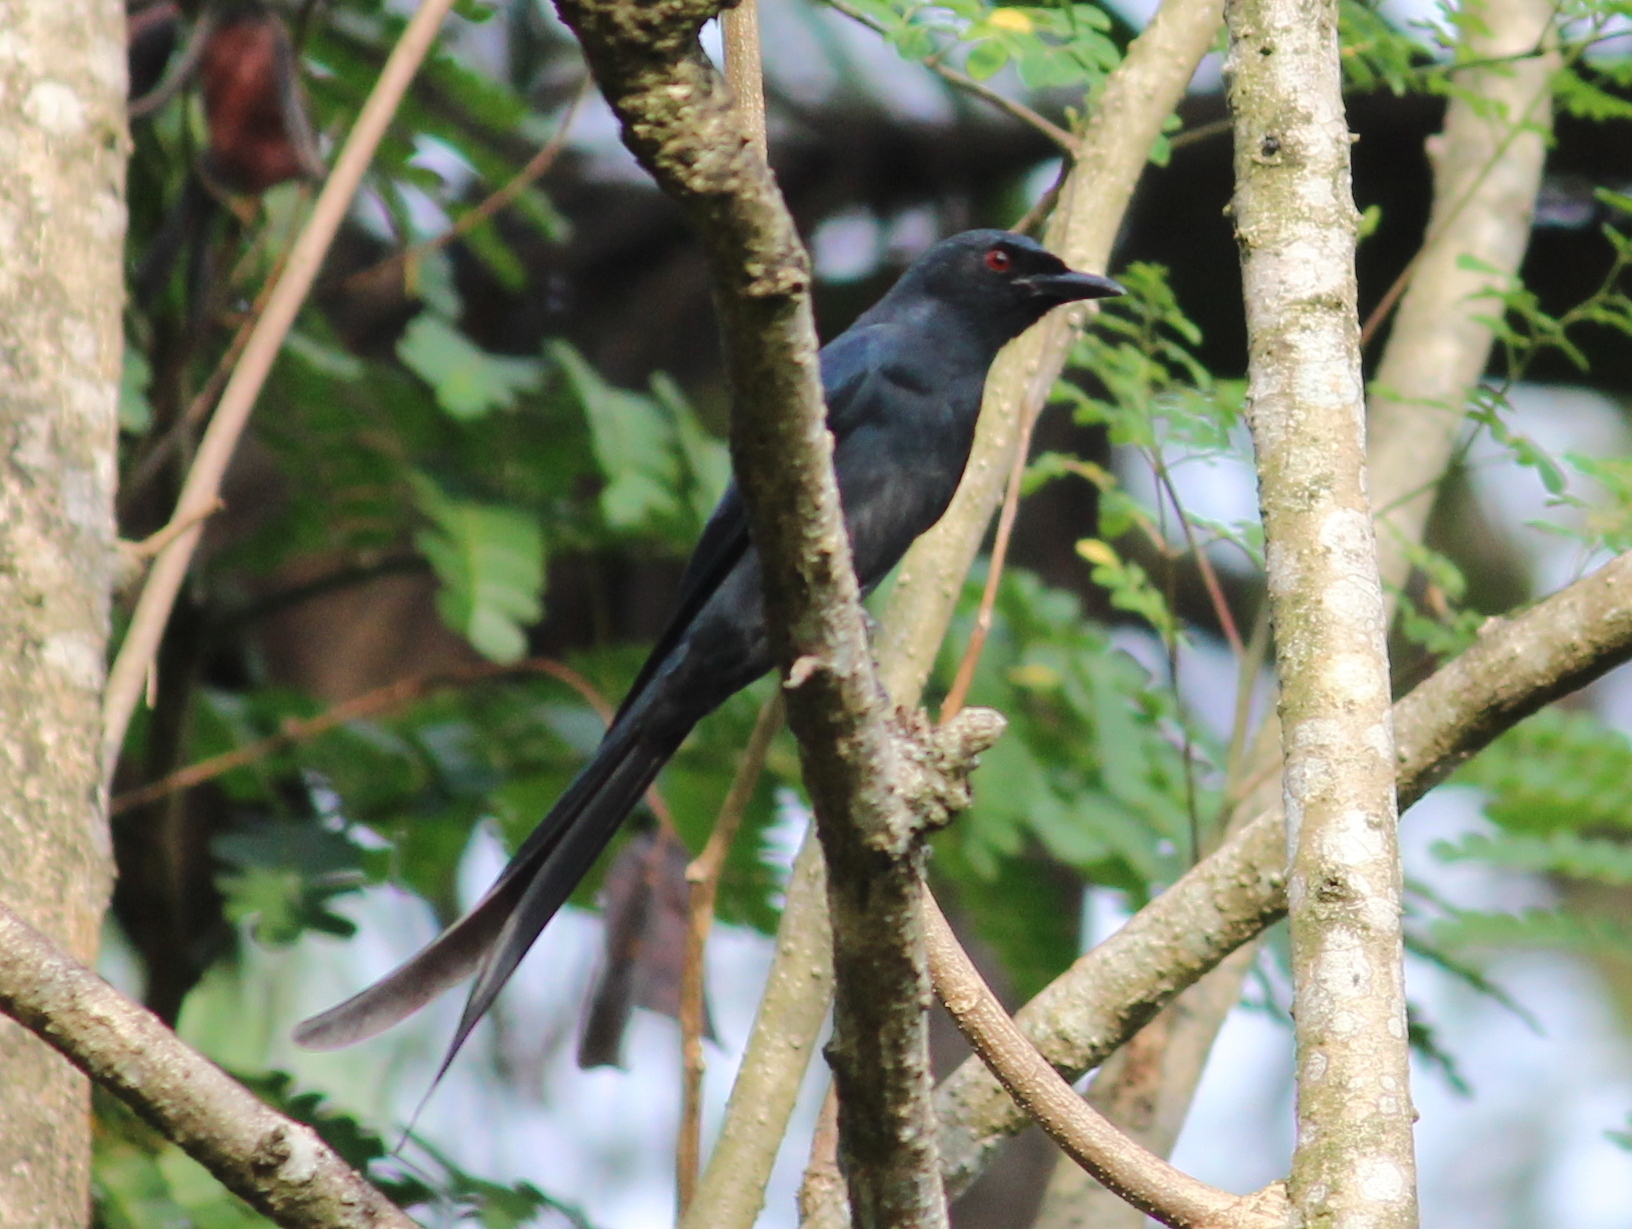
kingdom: Animalia
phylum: Chordata
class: Aves
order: Passeriformes
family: Dicruridae
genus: Dicrurus
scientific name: Dicrurus leucophaeus
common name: Ashy drongo
